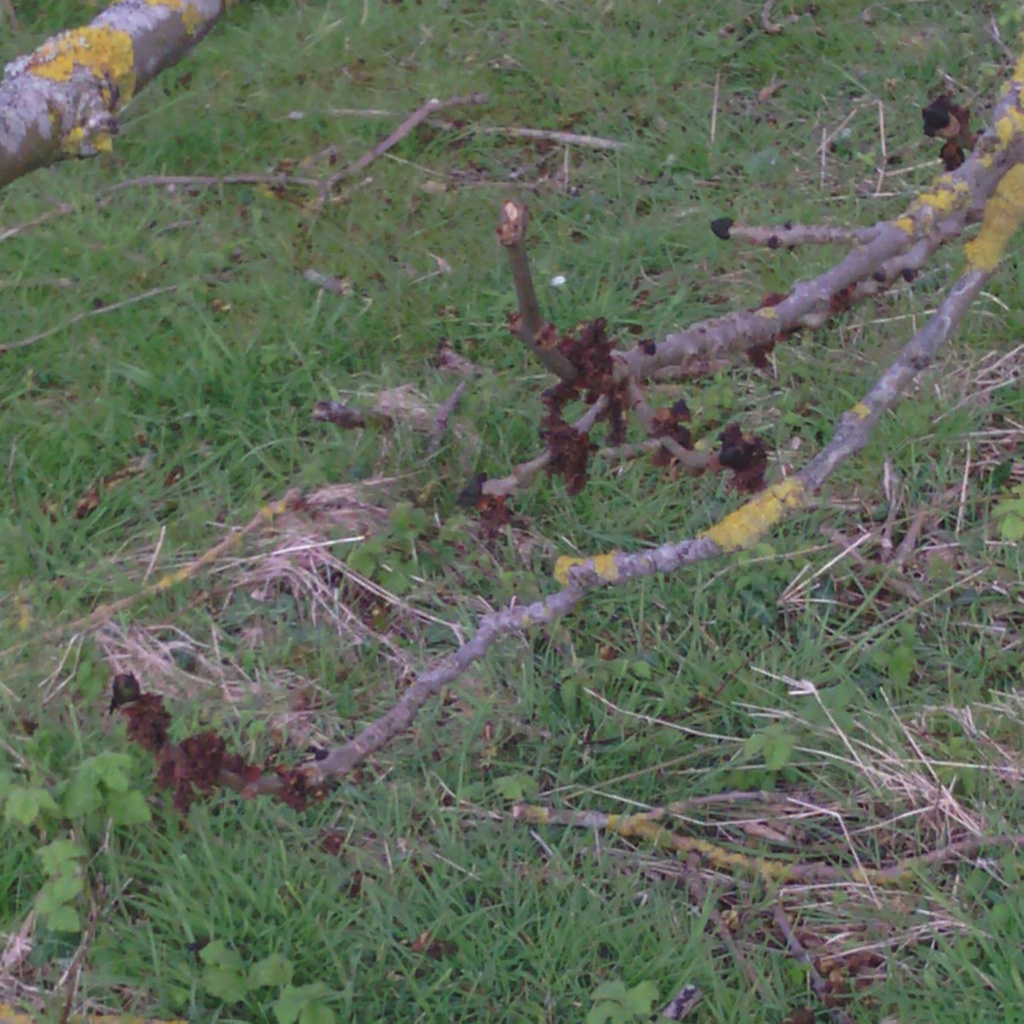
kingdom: Animalia
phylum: Arthropoda
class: Arachnida
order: Trombidiformes
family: Eriophyidae
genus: Aceria
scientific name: Aceria fraxinivora
